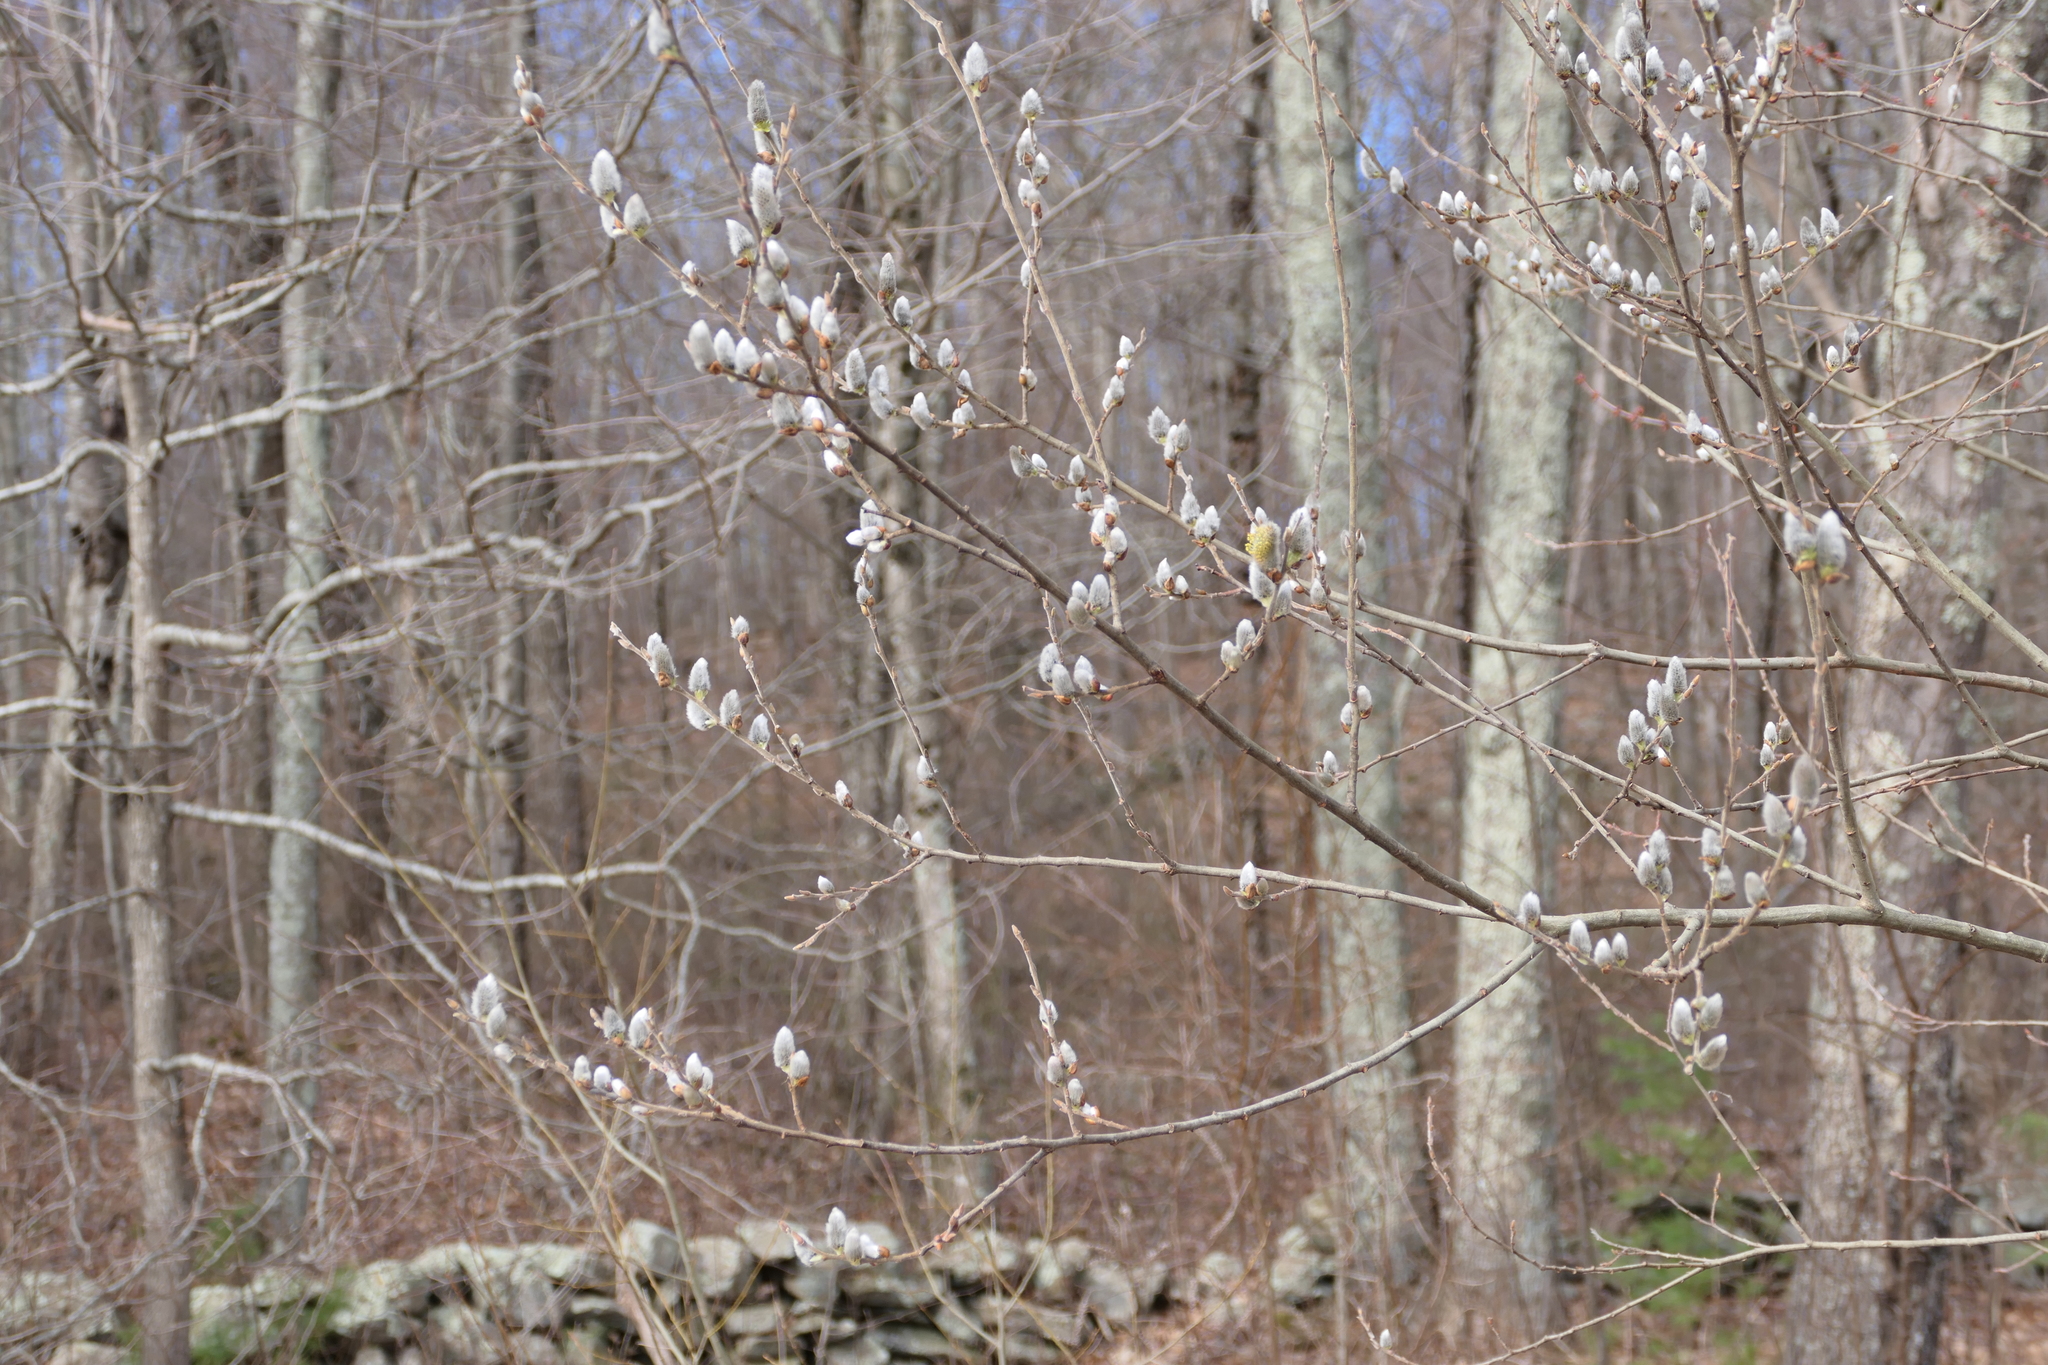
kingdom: Plantae
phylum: Tracheophyta
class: Magnoliopsida
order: Malpighiales
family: Salicaceae
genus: Salix
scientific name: Salix discolor
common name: Glaucous willow
